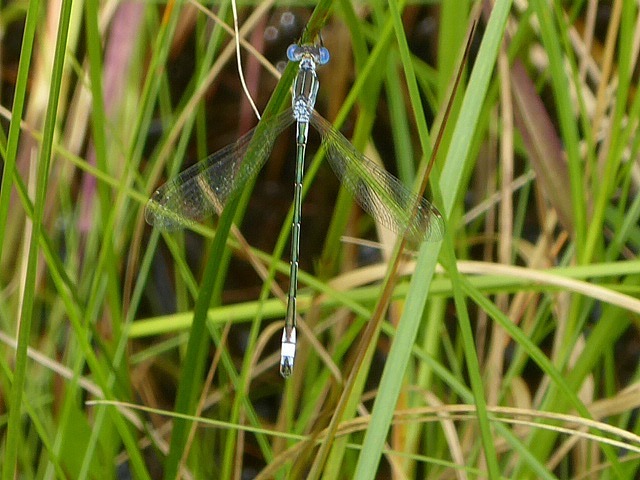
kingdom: Animalia
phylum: Arthropoda
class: Insecta
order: Odonata
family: Lestidae
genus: Lestes
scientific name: Lestes unguiculatus
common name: Lyre-tipped spreadwing
